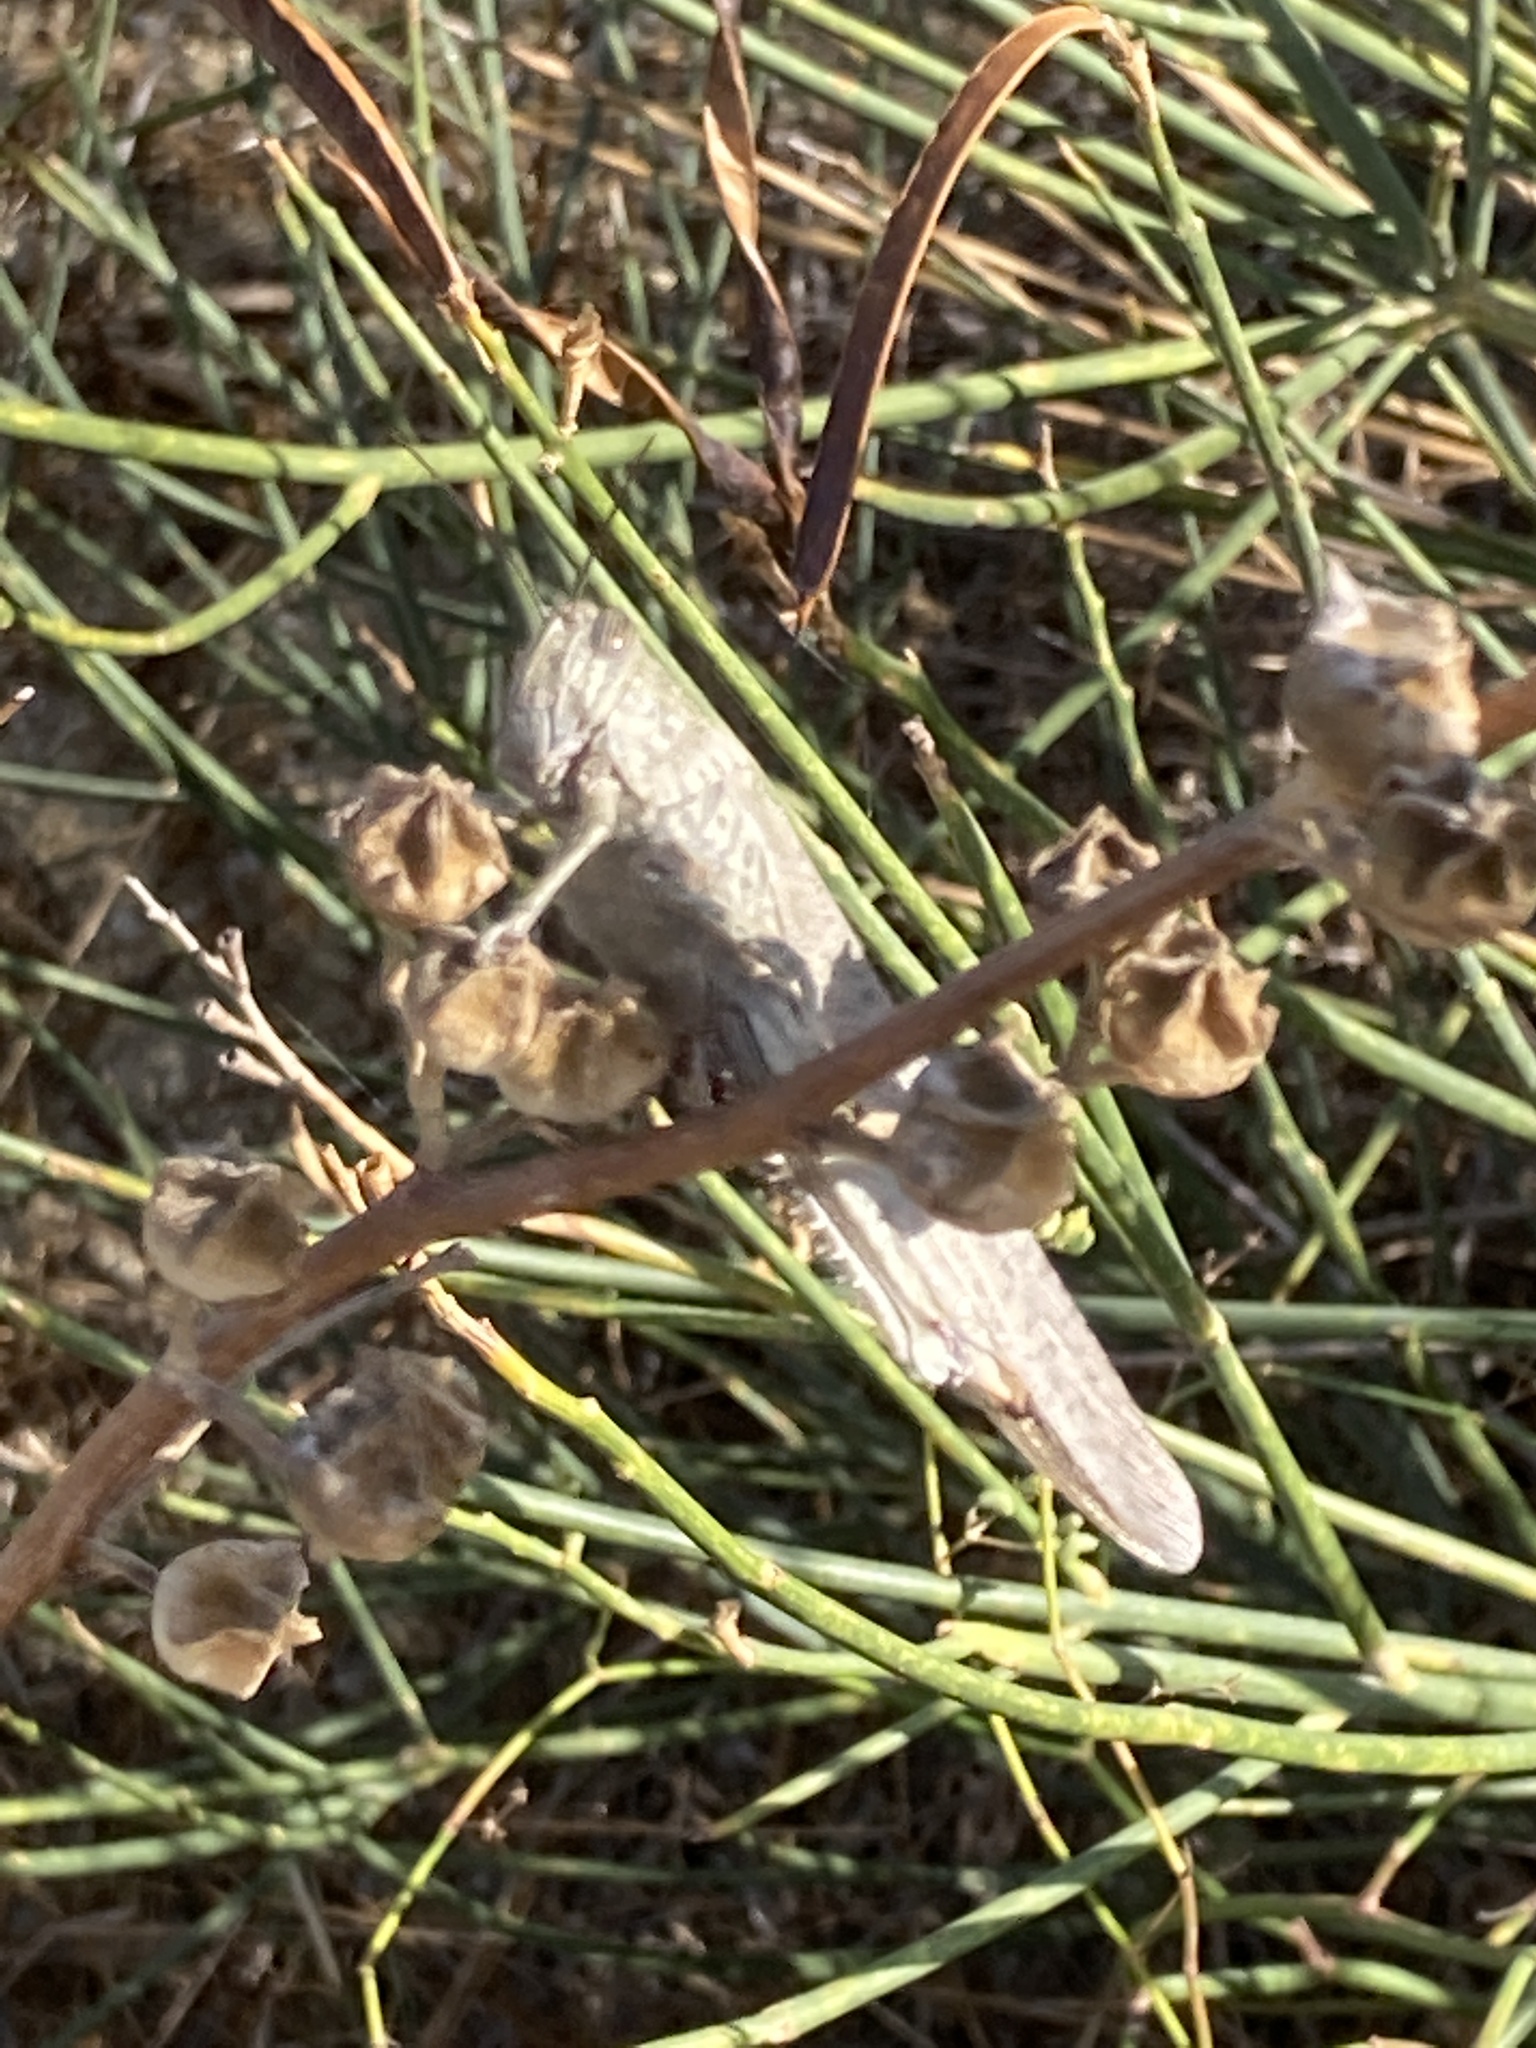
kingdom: Animalia
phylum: Arthropoda
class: Insecta
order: Orthoptera
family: Acrididae
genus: Anacridium
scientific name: Anacridium aegyptium
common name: Egyptian grasshopper
